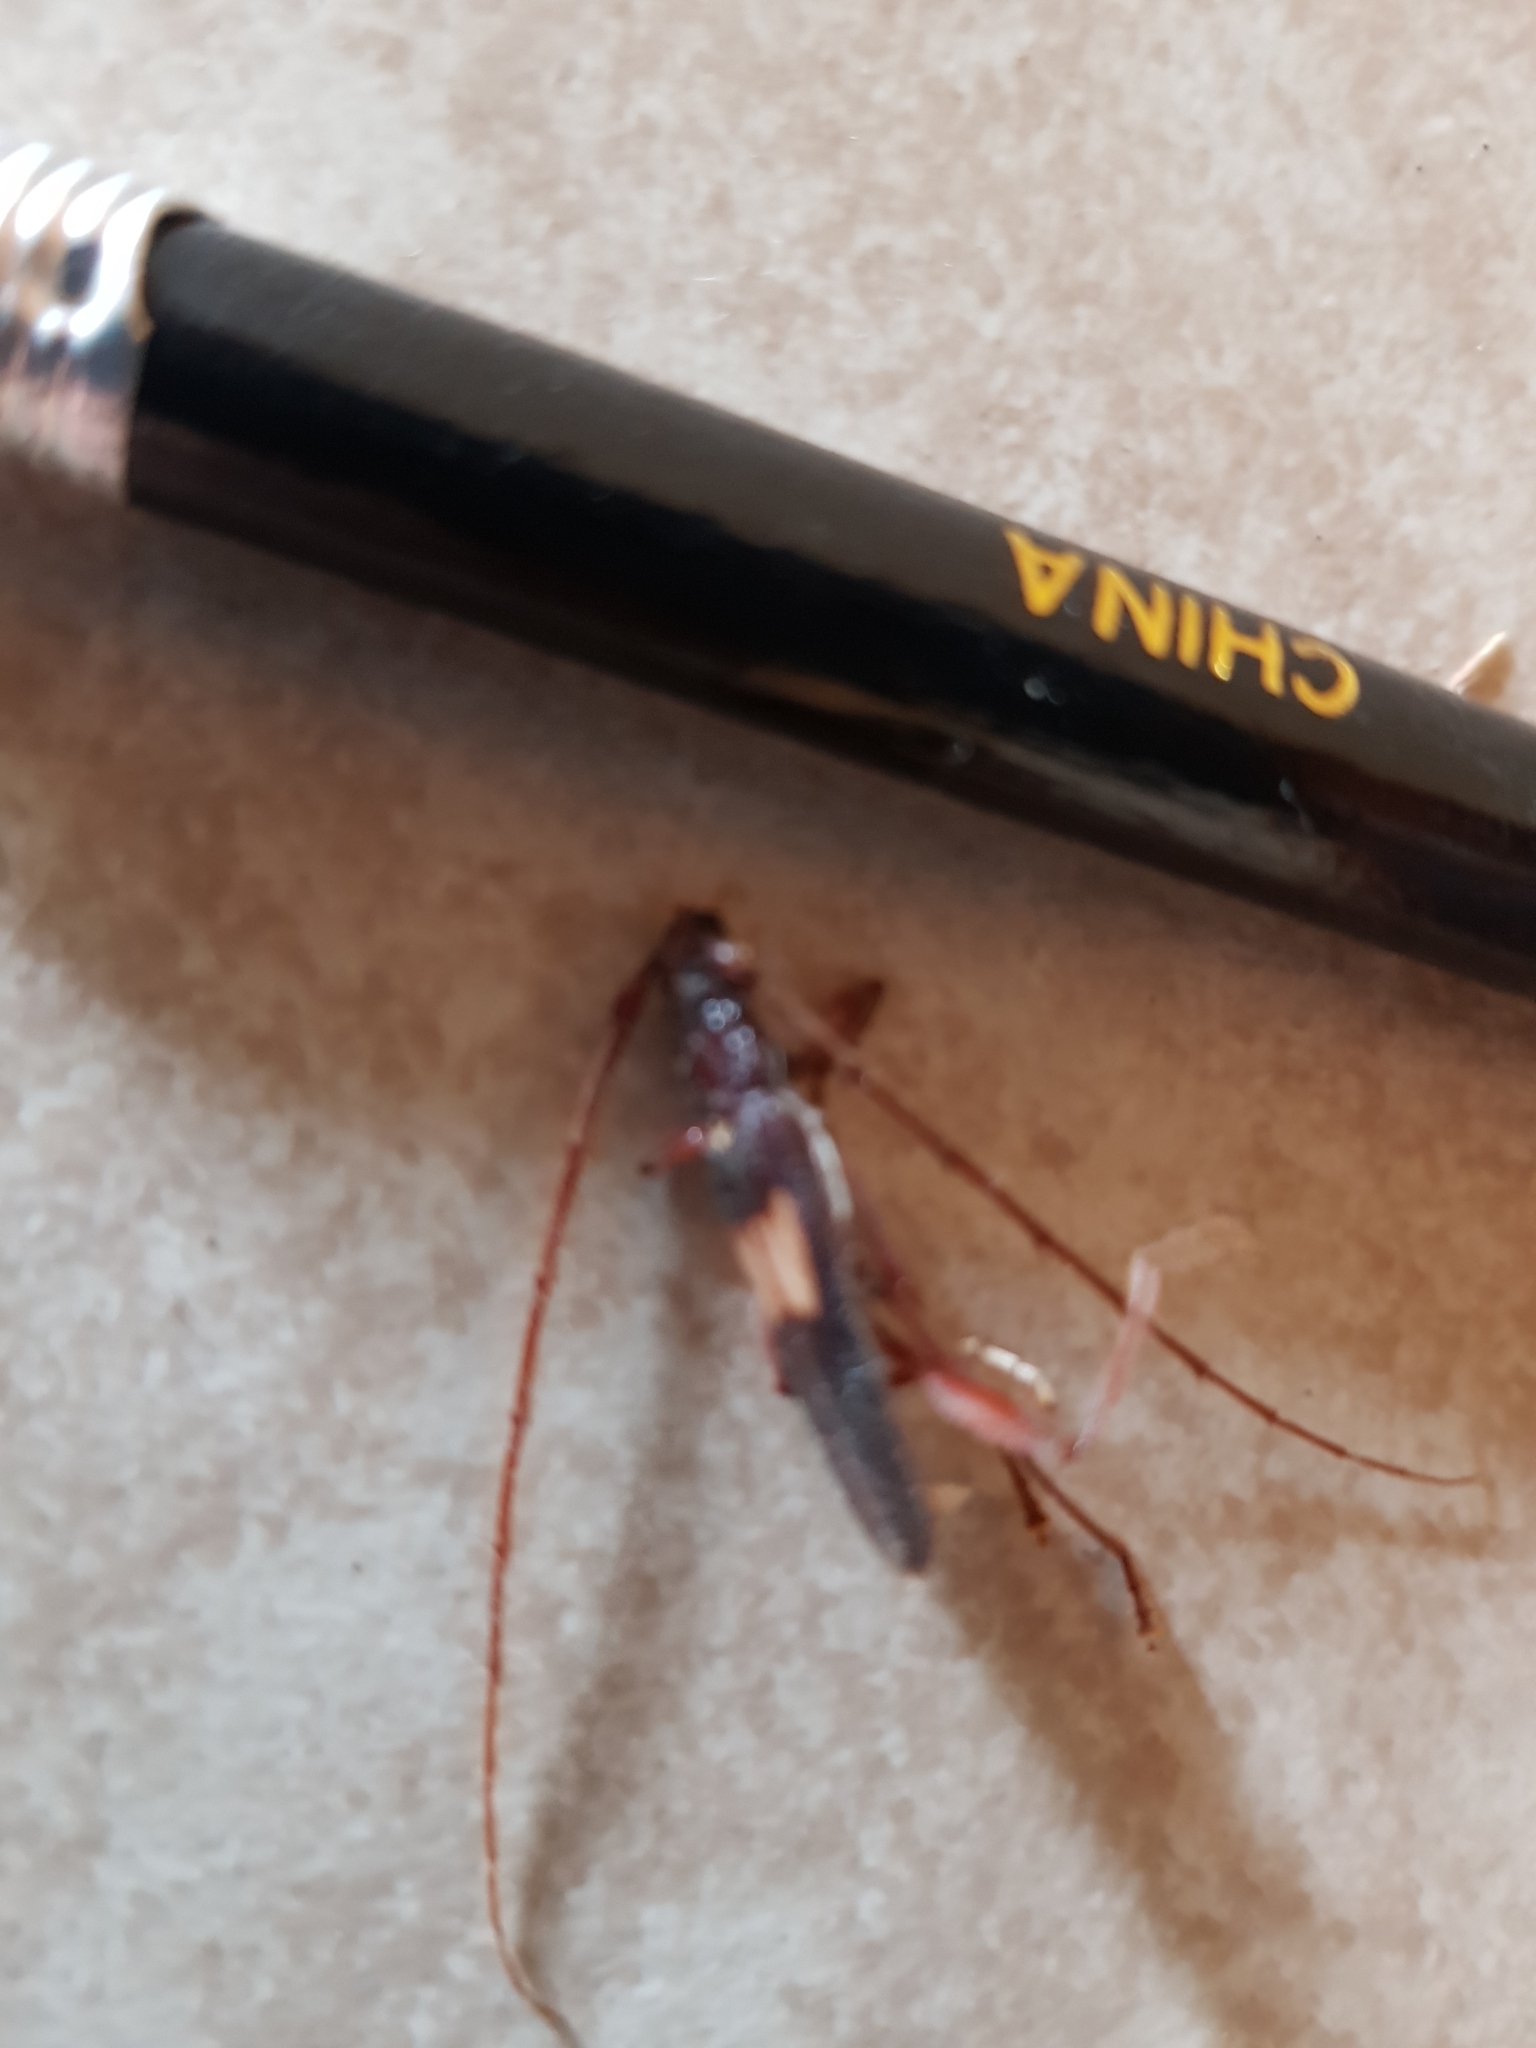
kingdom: Animalia
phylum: Arthropoda
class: Insecta
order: Coleoptera
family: Cerambycidae
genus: Epithora
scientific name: Epithora dorsalis
